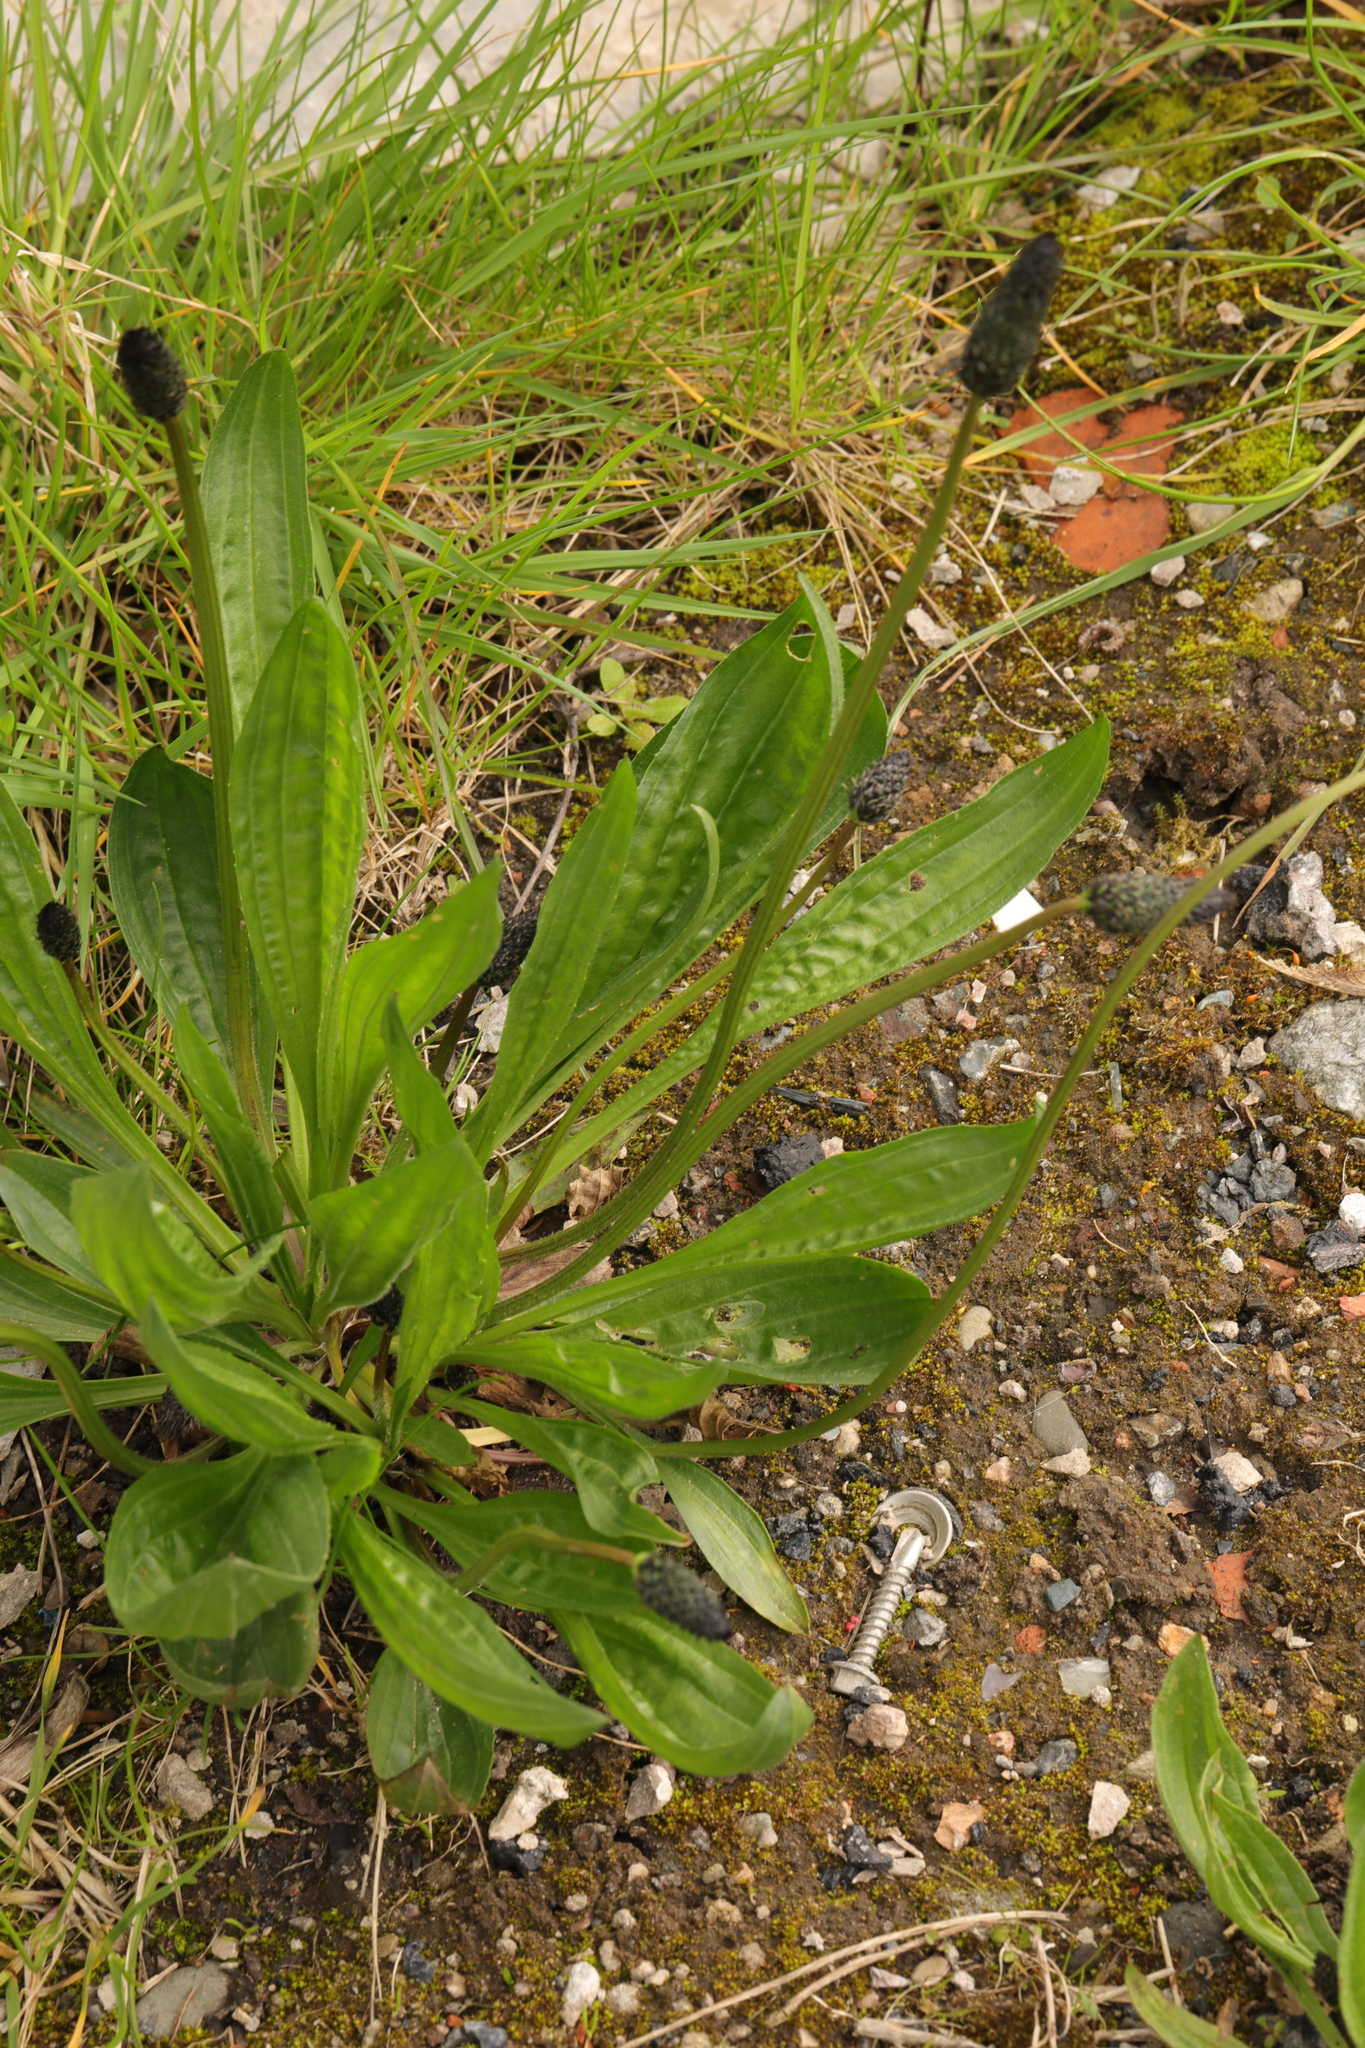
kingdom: Plantae
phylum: Tracheophyta
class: Magnoliopsida
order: Lamiales
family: Plantaginaceae
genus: Plantago
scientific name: Plantago lanceolata
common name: Ribwort plantain
